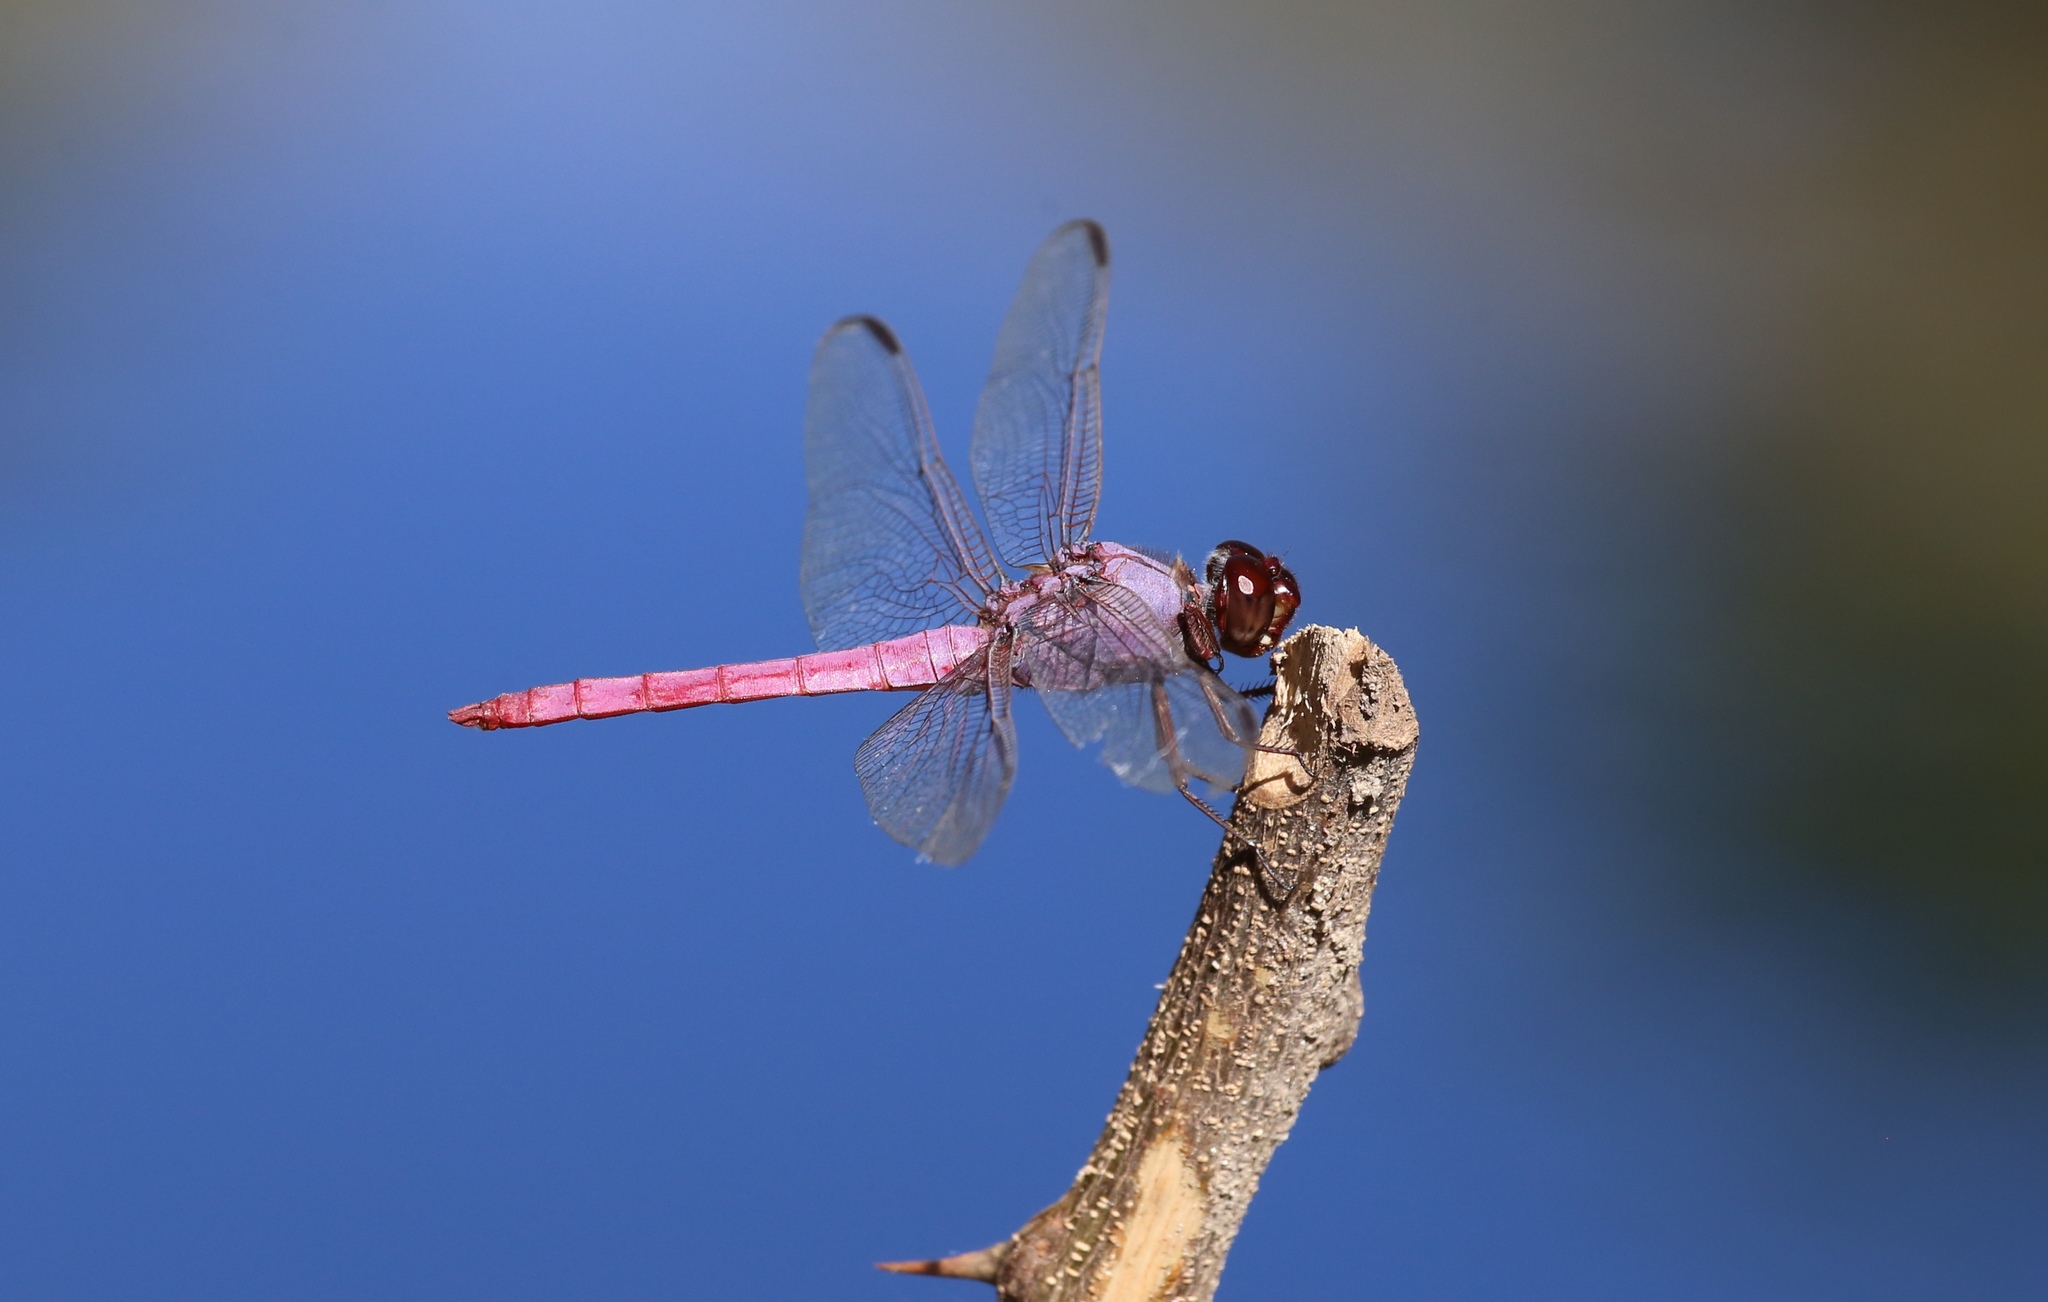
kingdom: Animalia
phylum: Arthropoda
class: Insecta
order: Odonata
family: Libellulidae
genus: Orthemis
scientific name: Orthemis ferruginea
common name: Roseate skimmer
